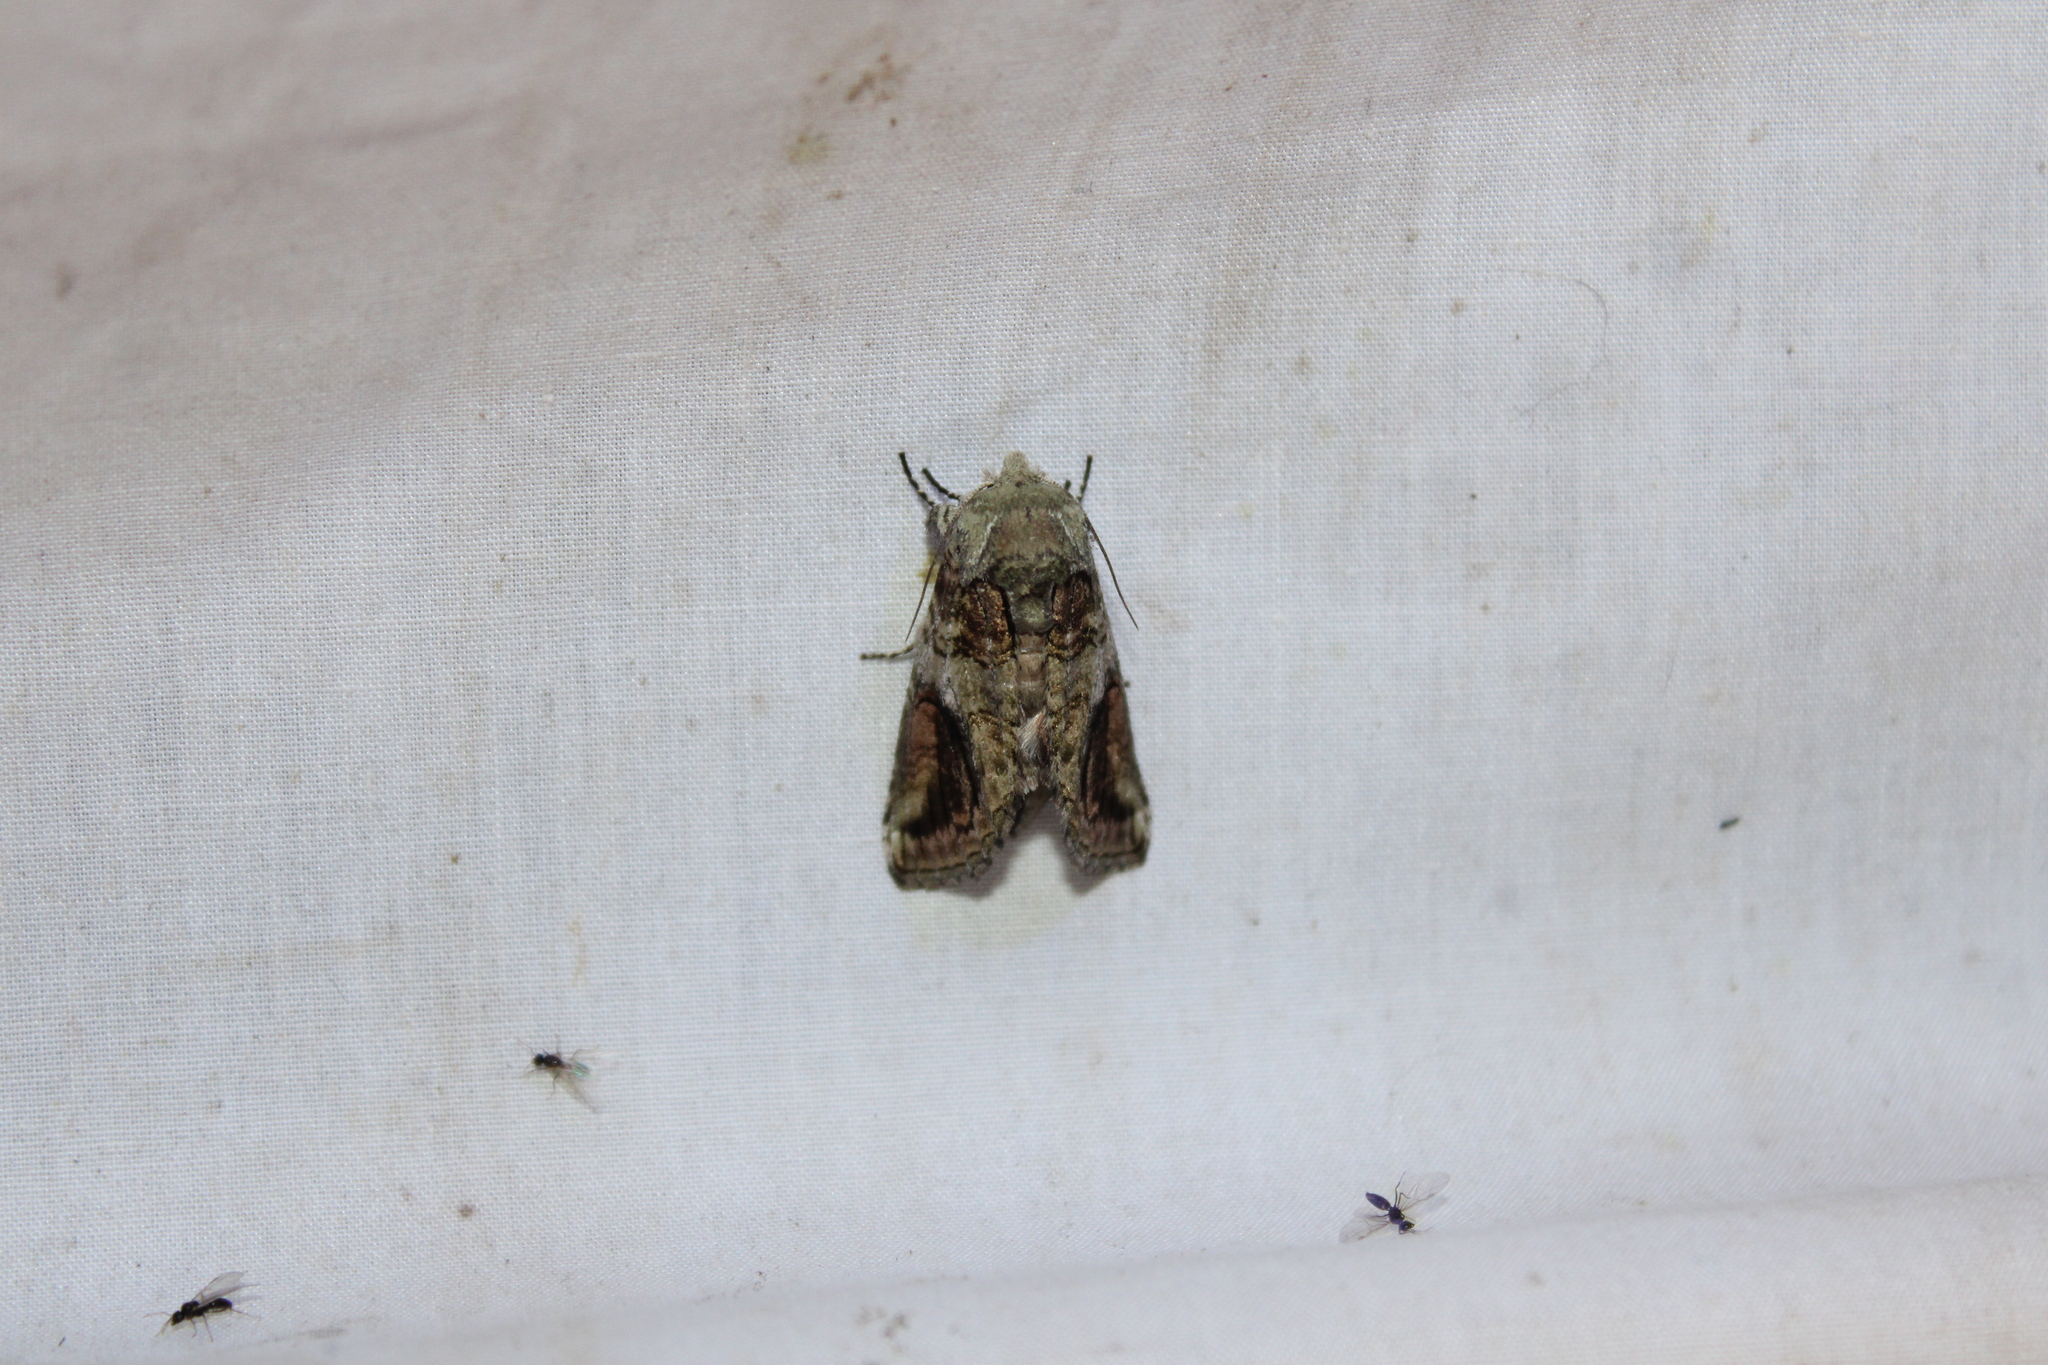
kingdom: Animalia
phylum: Arthropoda
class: Insecta
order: Lepidoptera
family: Notodontidae
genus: Heterocampa
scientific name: Heterocampa obliqua
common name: Oblique heterocampa
